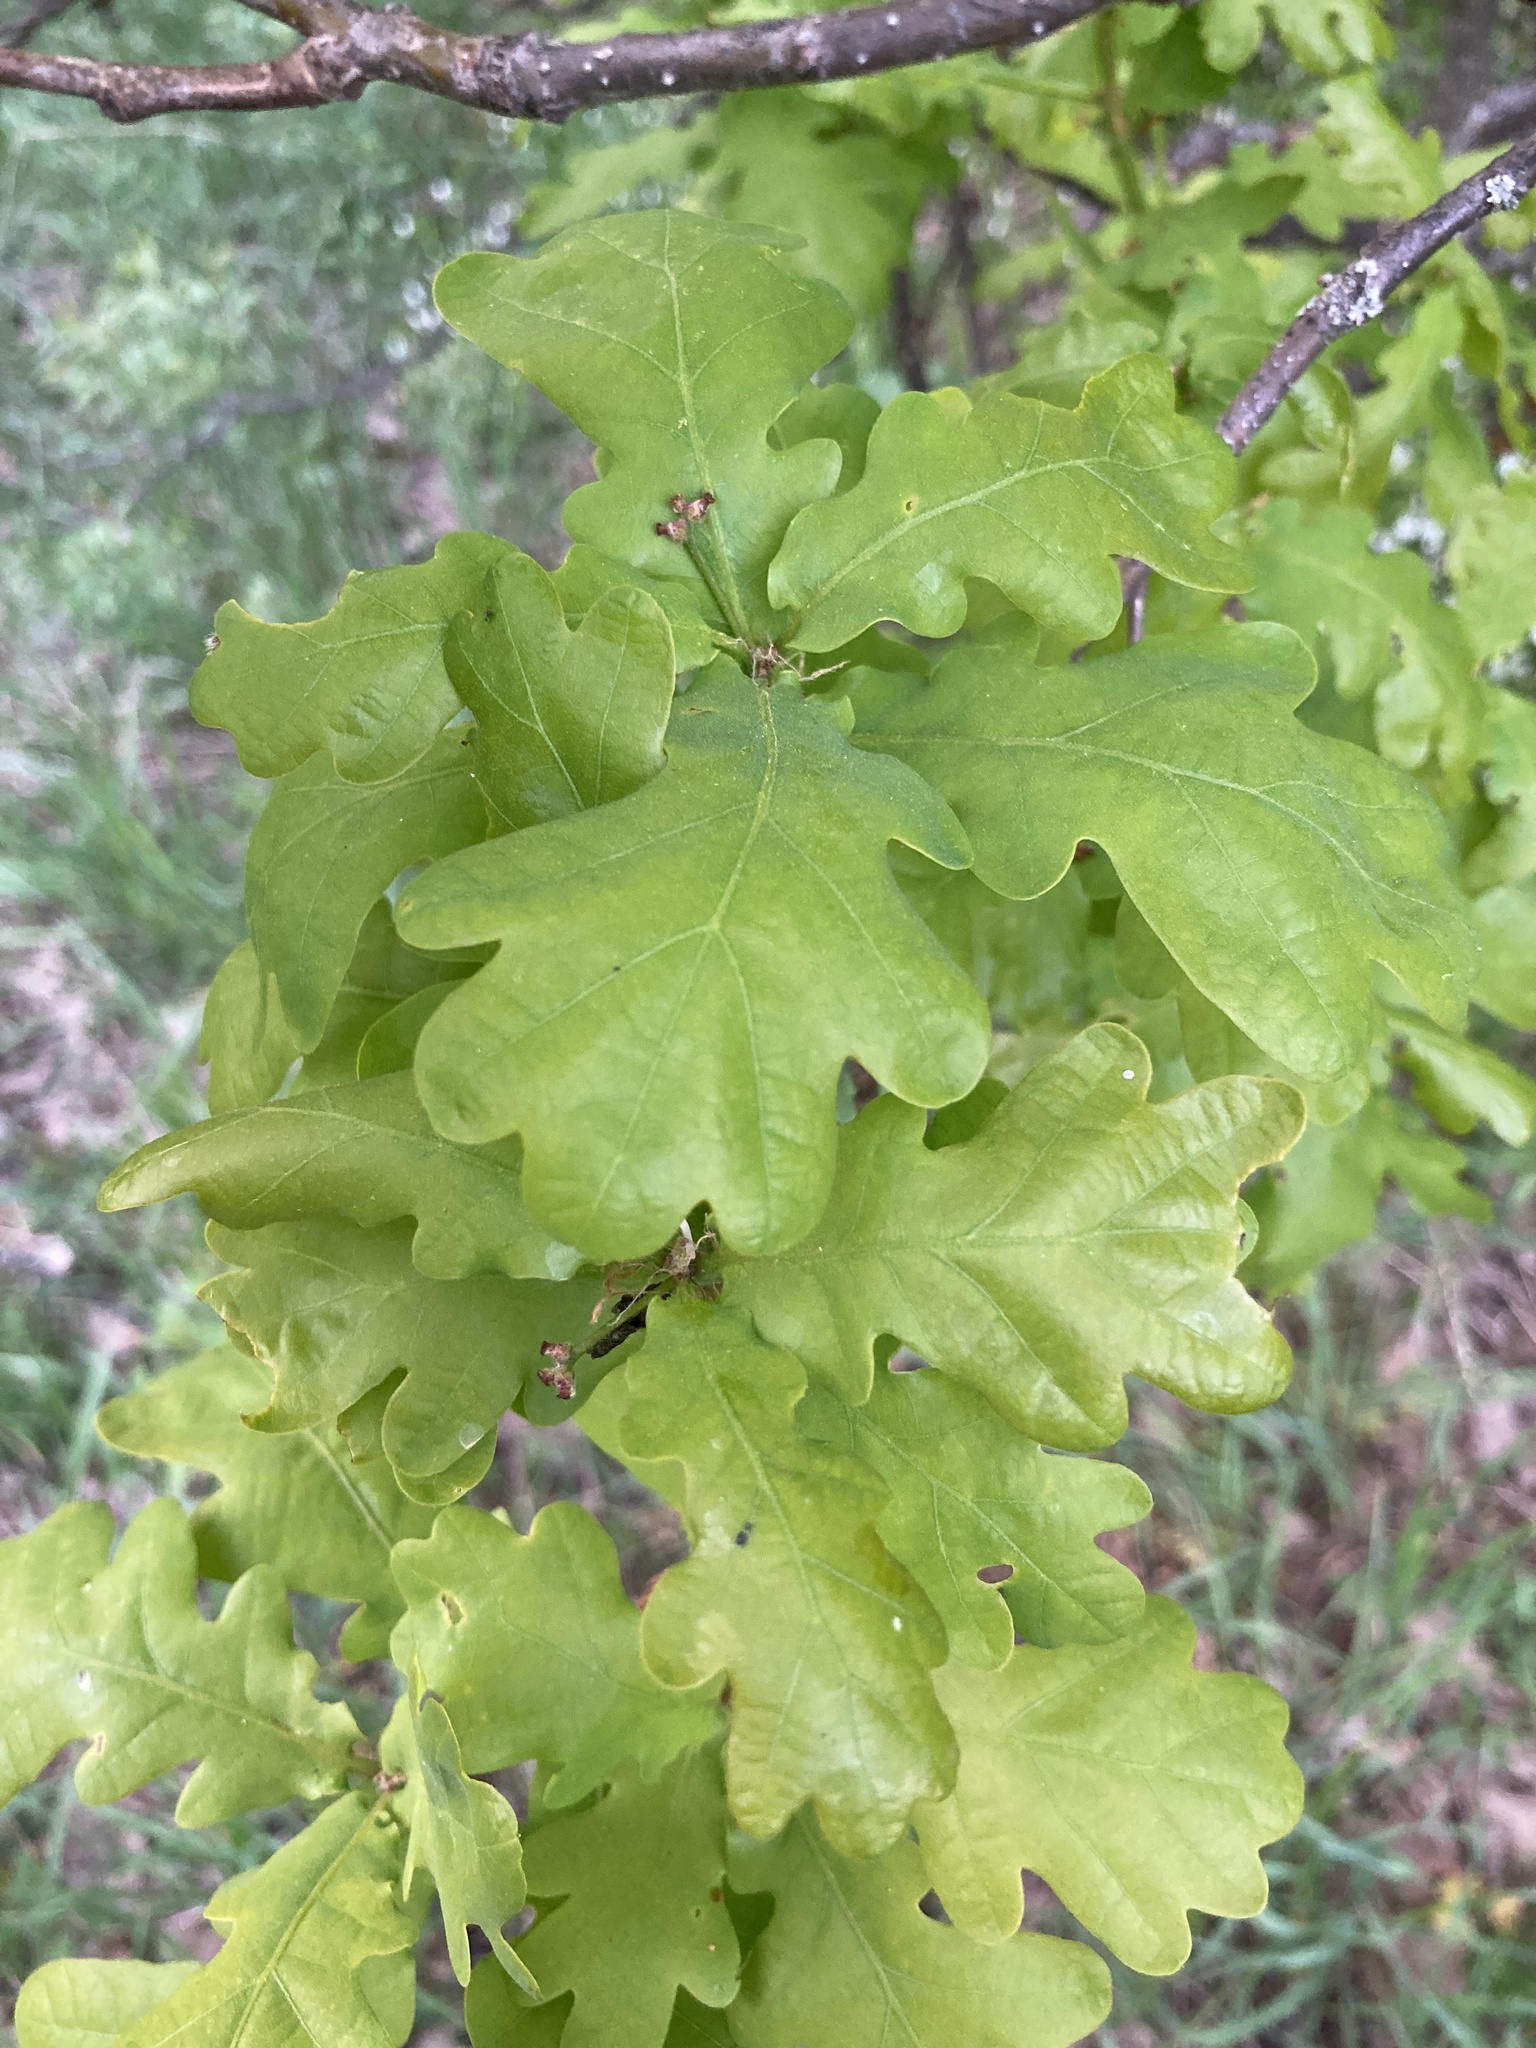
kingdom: Plantae
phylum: Tracheophyta
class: Magnoliopsida
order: Fagales
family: Fagaceae
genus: Quercus
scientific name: Quercus robur
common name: Pedunculate oak
